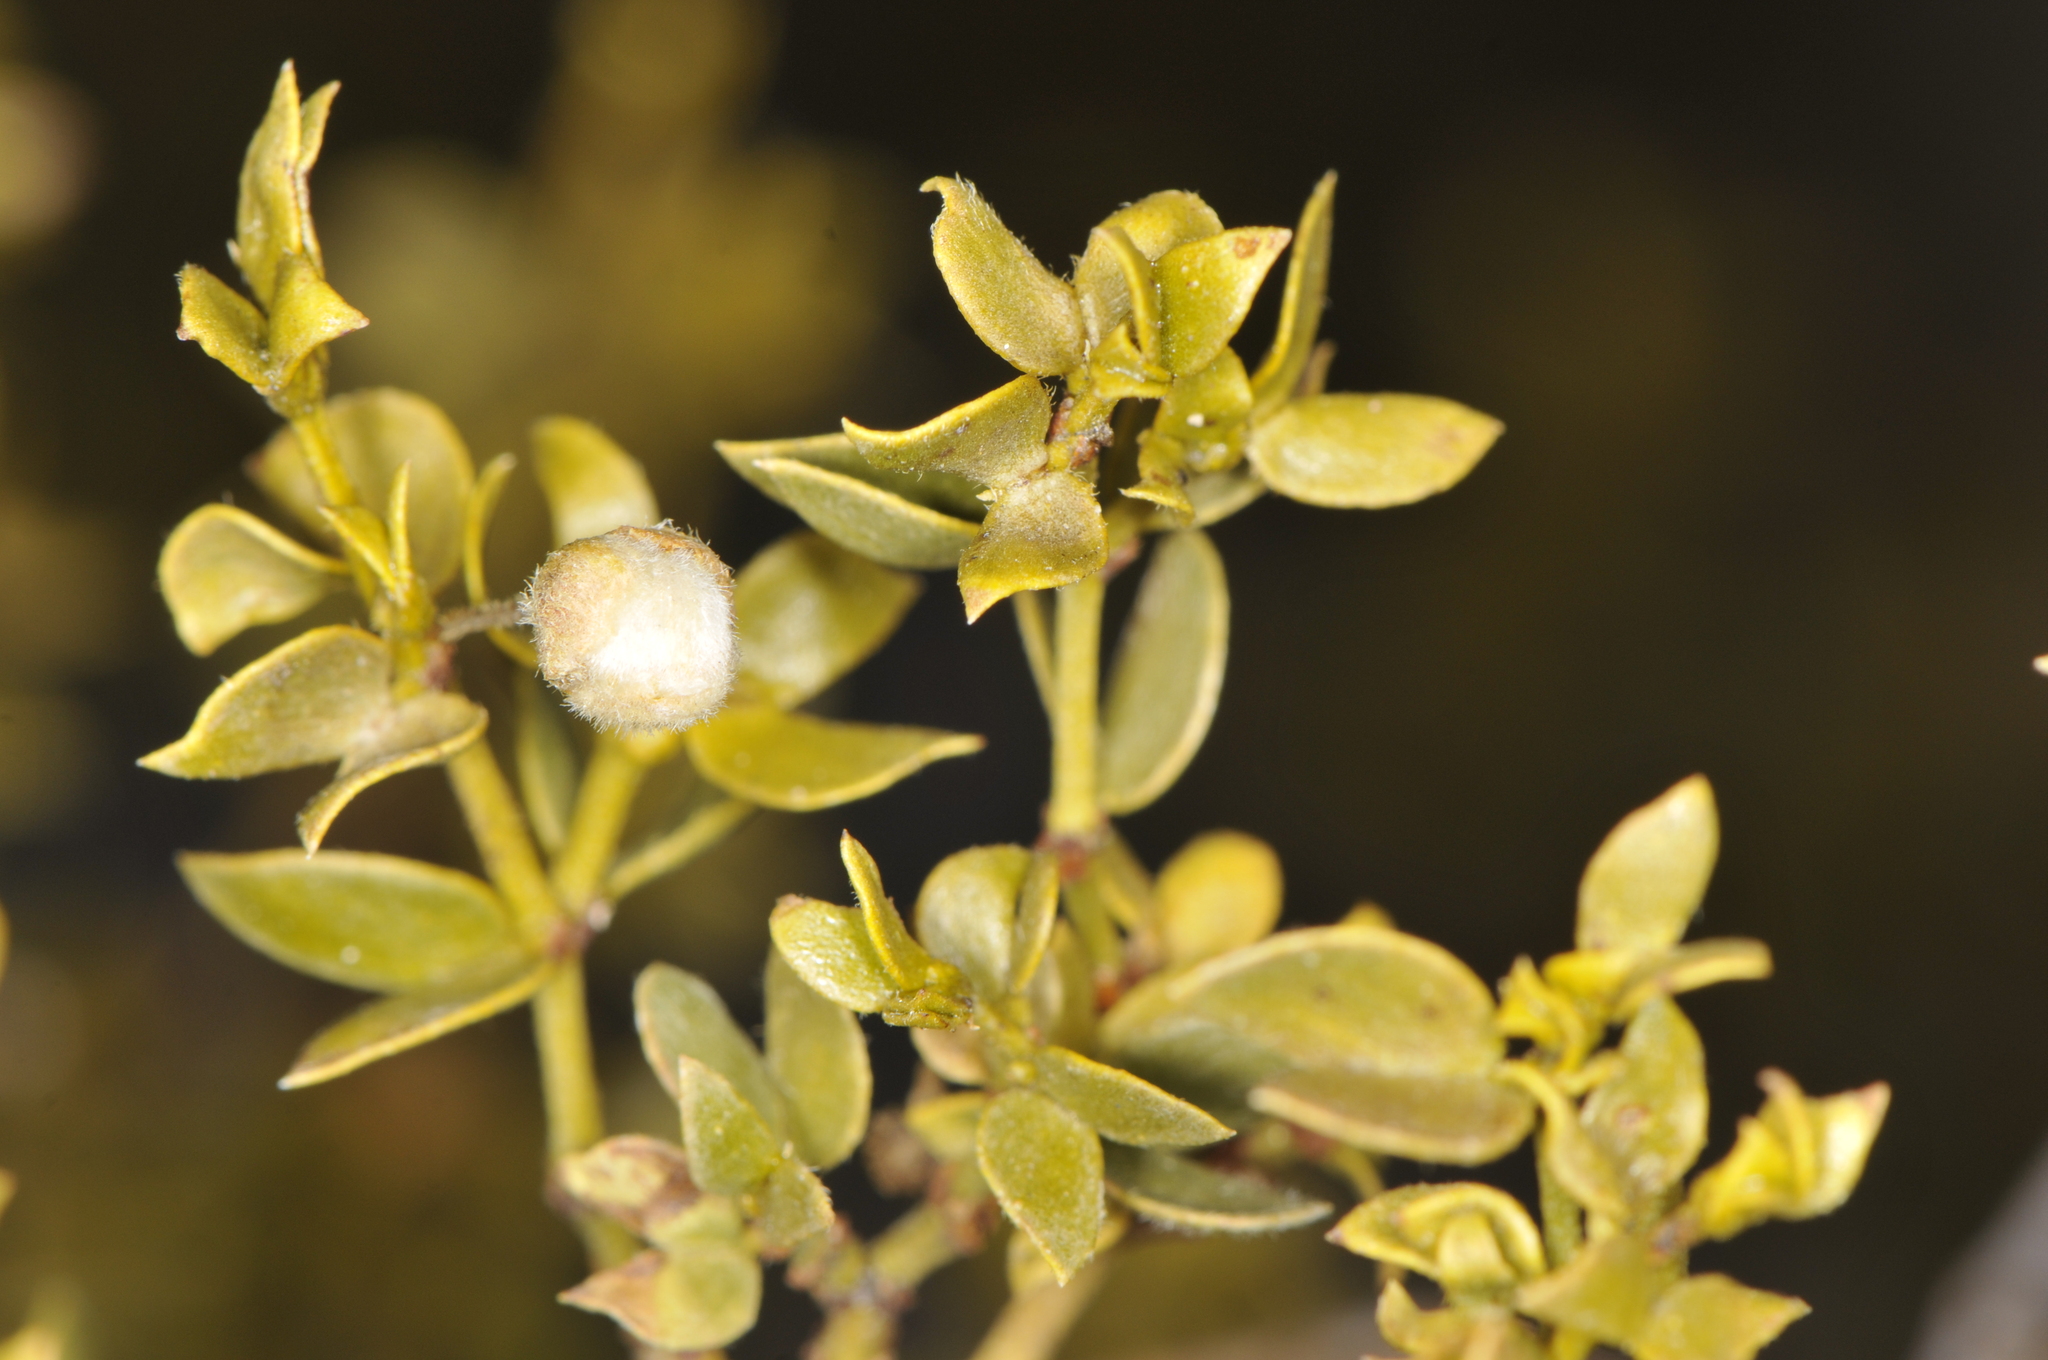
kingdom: Plantae
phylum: Tracheophyta
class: Magnoliopsida
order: Zygophyllales
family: Zygophyllaceae
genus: Larrea
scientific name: Larrea tridentata
